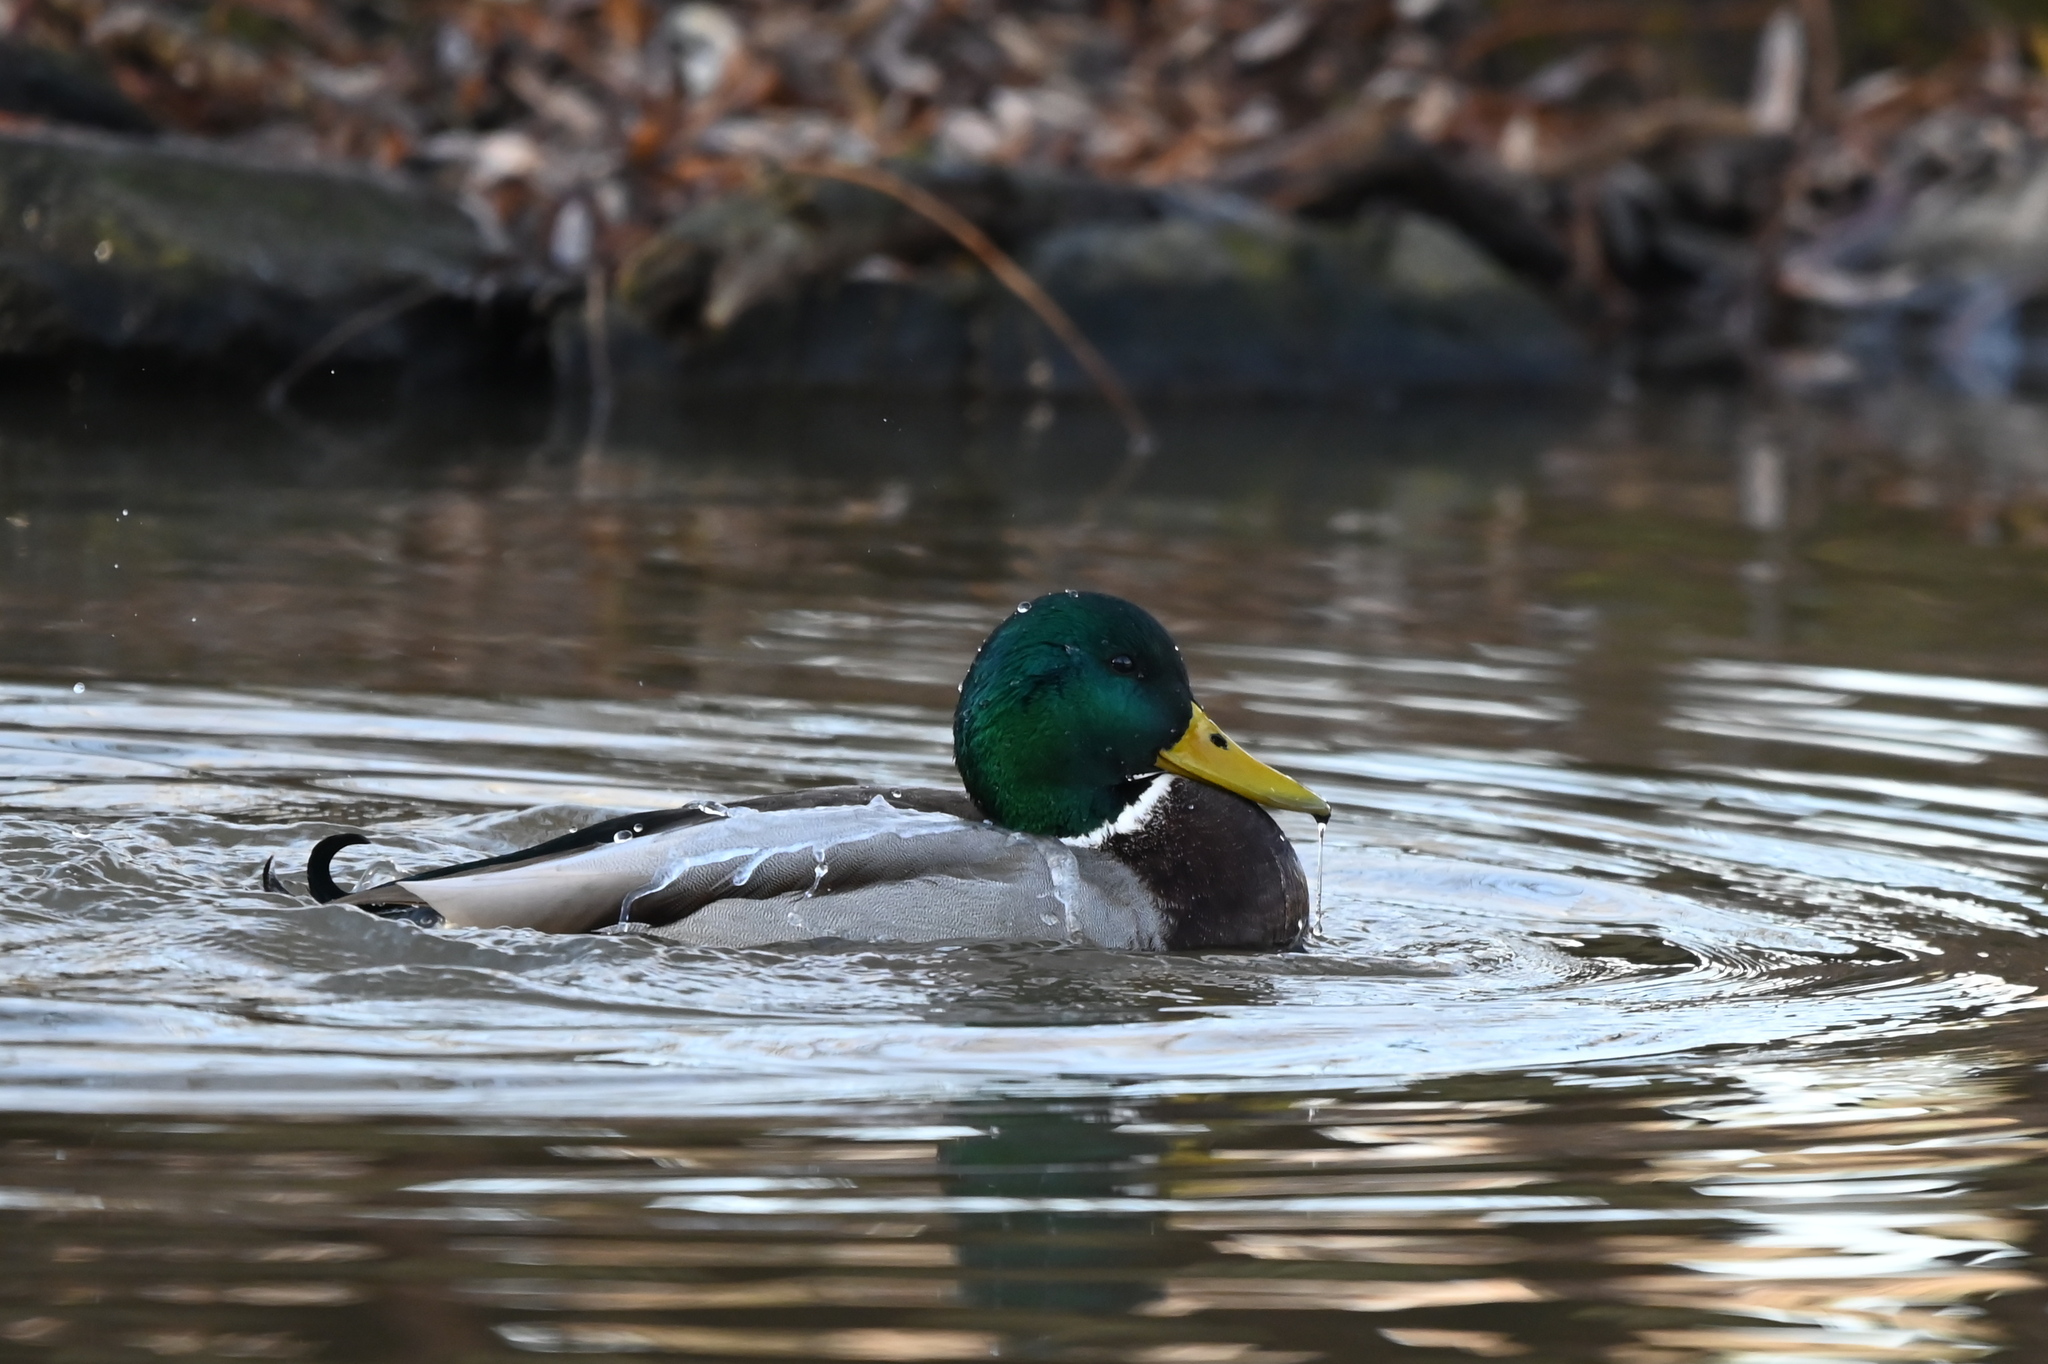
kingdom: Animalia
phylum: Chordata
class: Aves
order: Anseriformes
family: Anatidae
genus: Anas
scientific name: Anas platyrhynchos
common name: Mallard
